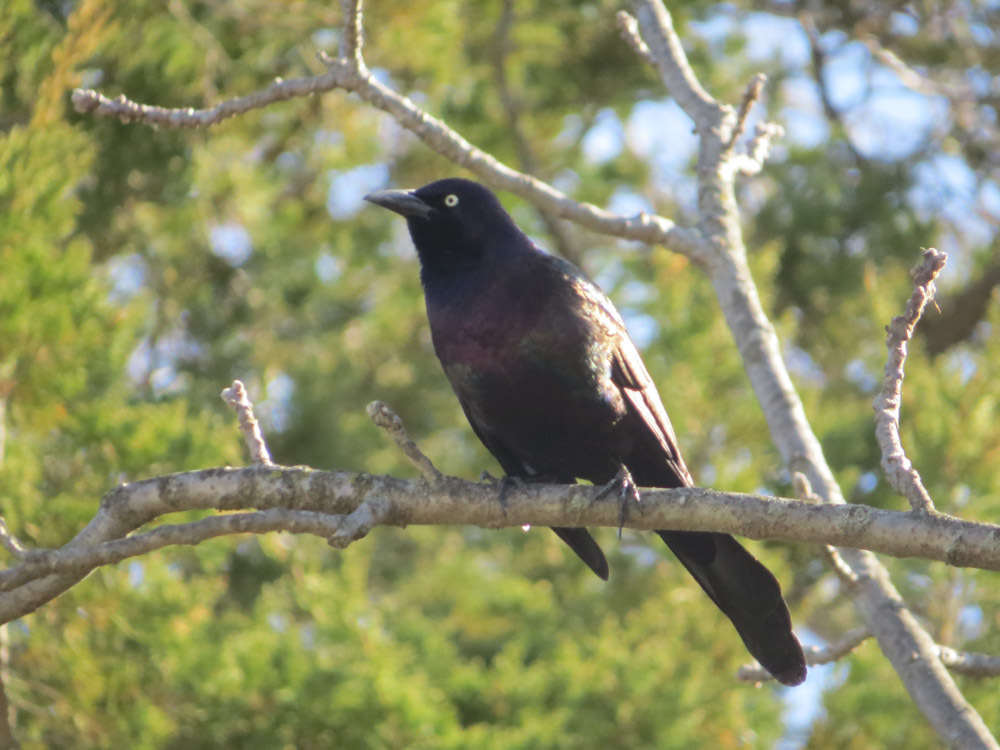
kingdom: Animalia
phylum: Chordata
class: Aves
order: Passeriformes
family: Icteridae
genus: Quiscalus
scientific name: Quiscalus quiscula
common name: Common grackle
